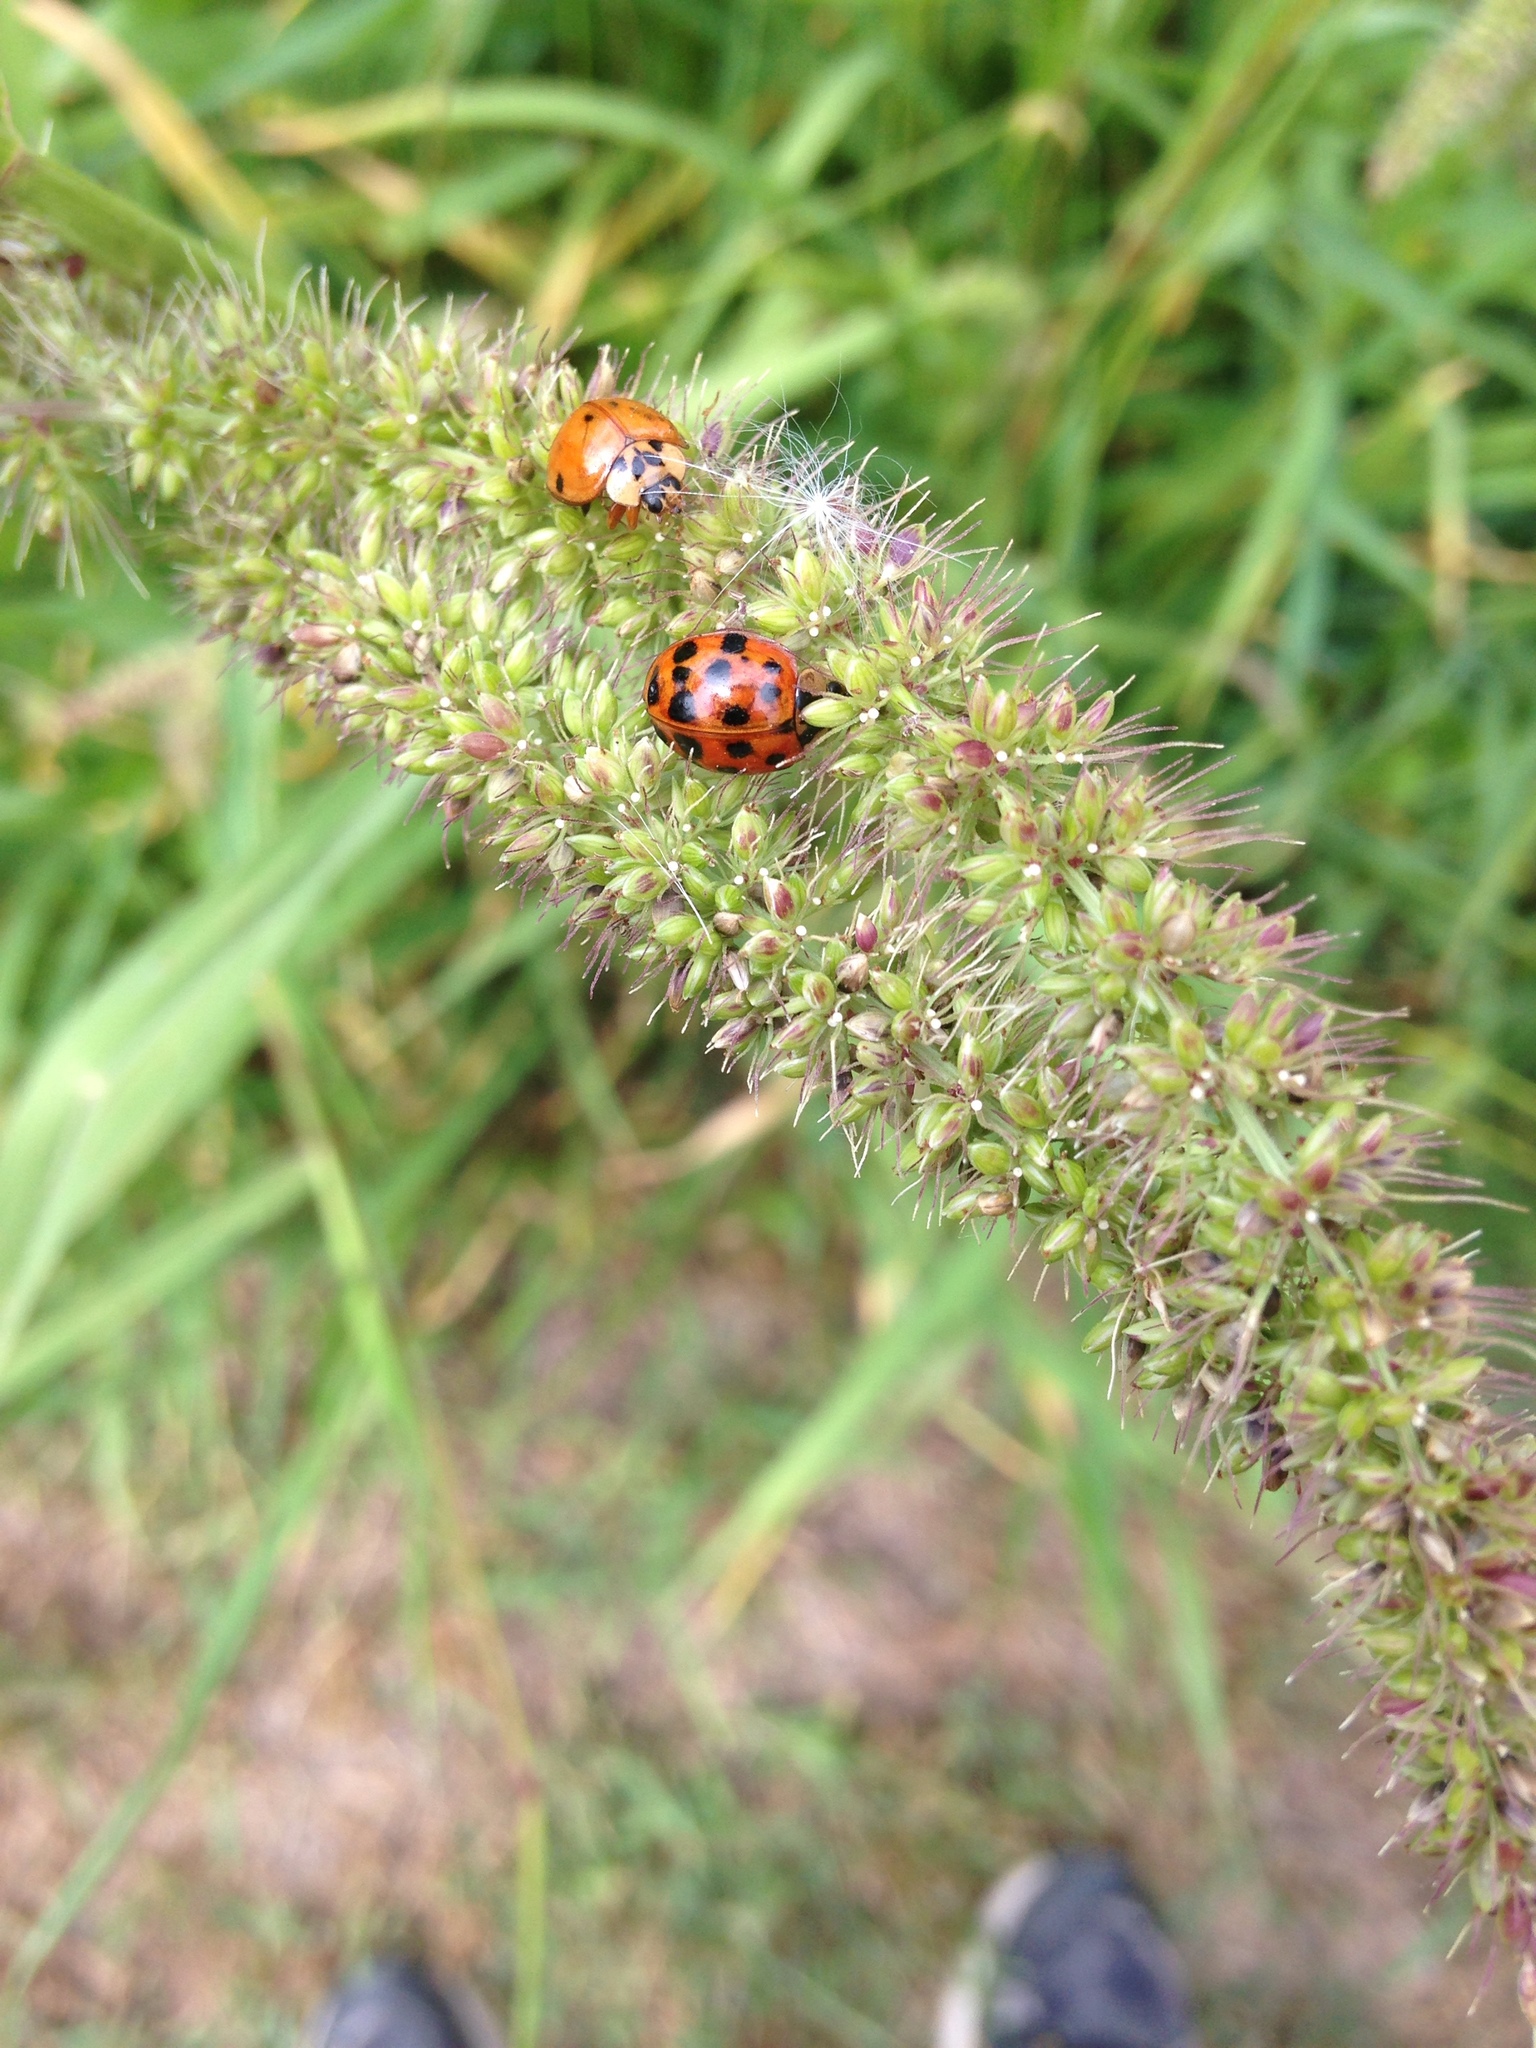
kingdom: Animalia
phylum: Arthropoda
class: Insecta
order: Coleoptera
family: Coccinellidae
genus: Harmonia
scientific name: Harmonia axyridis
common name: Harlequin ladybird
